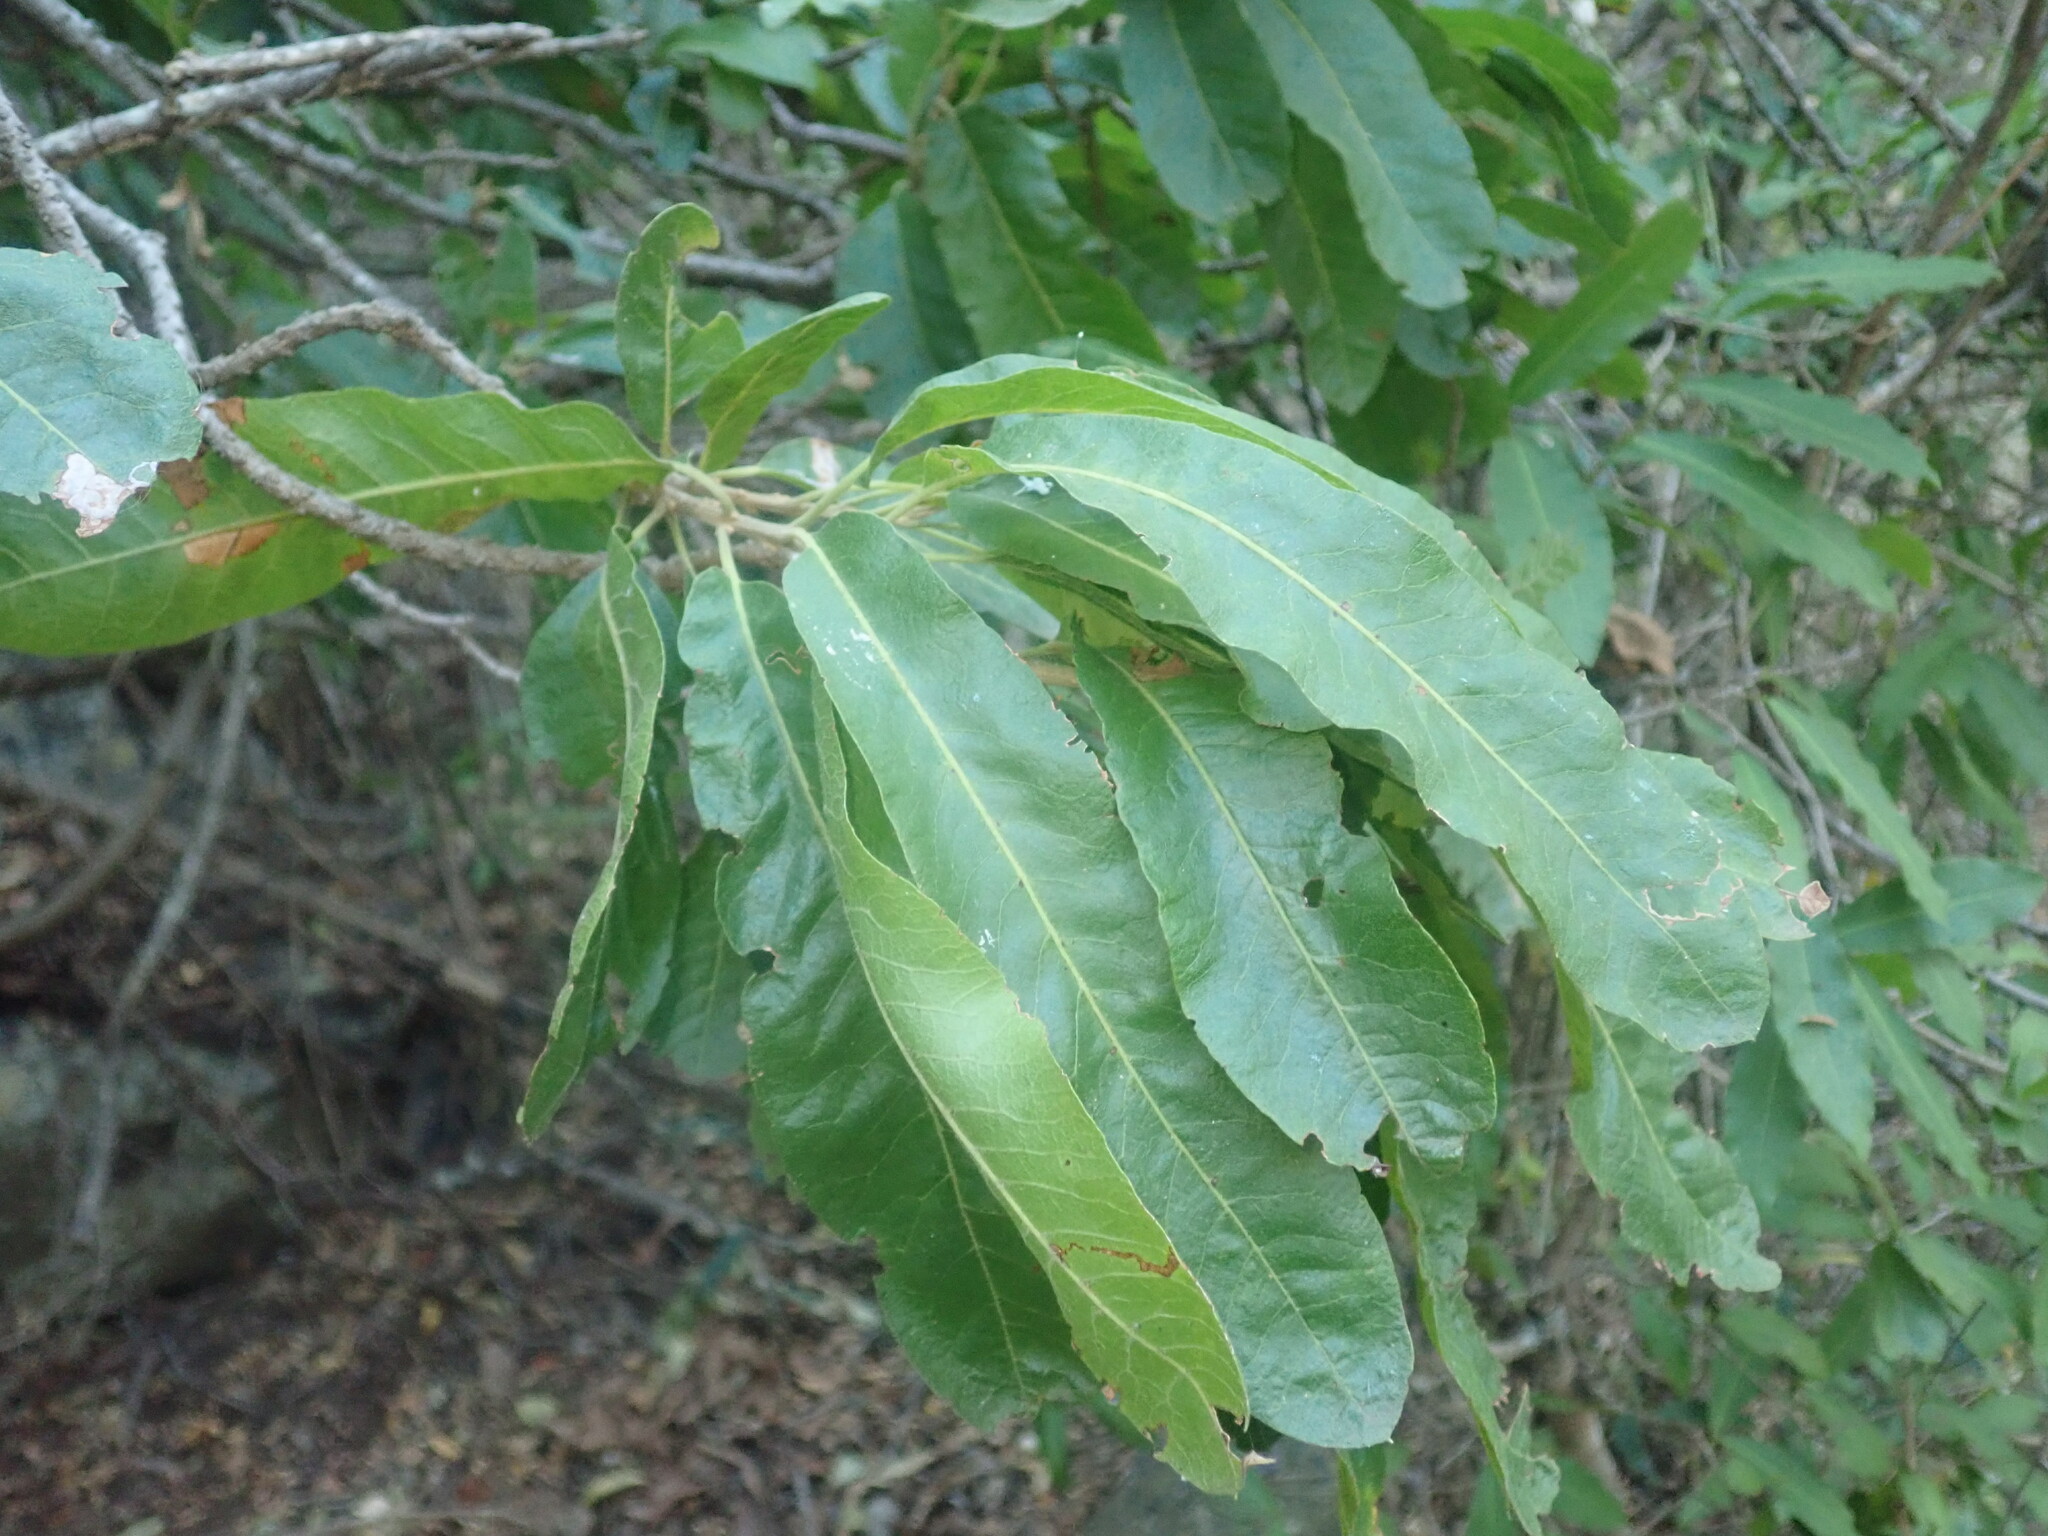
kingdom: Plantae
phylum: Tracheophyta
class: Magnoliopsida
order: Sapindales
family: Sapindaceae
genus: Pappea
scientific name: Pappea capensis
